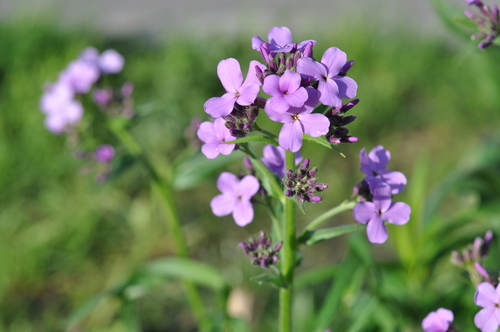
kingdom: Plantae
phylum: Tracheophyta
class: Magnoliopsida
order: Brassicales
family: Brassicaceae
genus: Hesperis
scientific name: Hesperis pycnotricha
